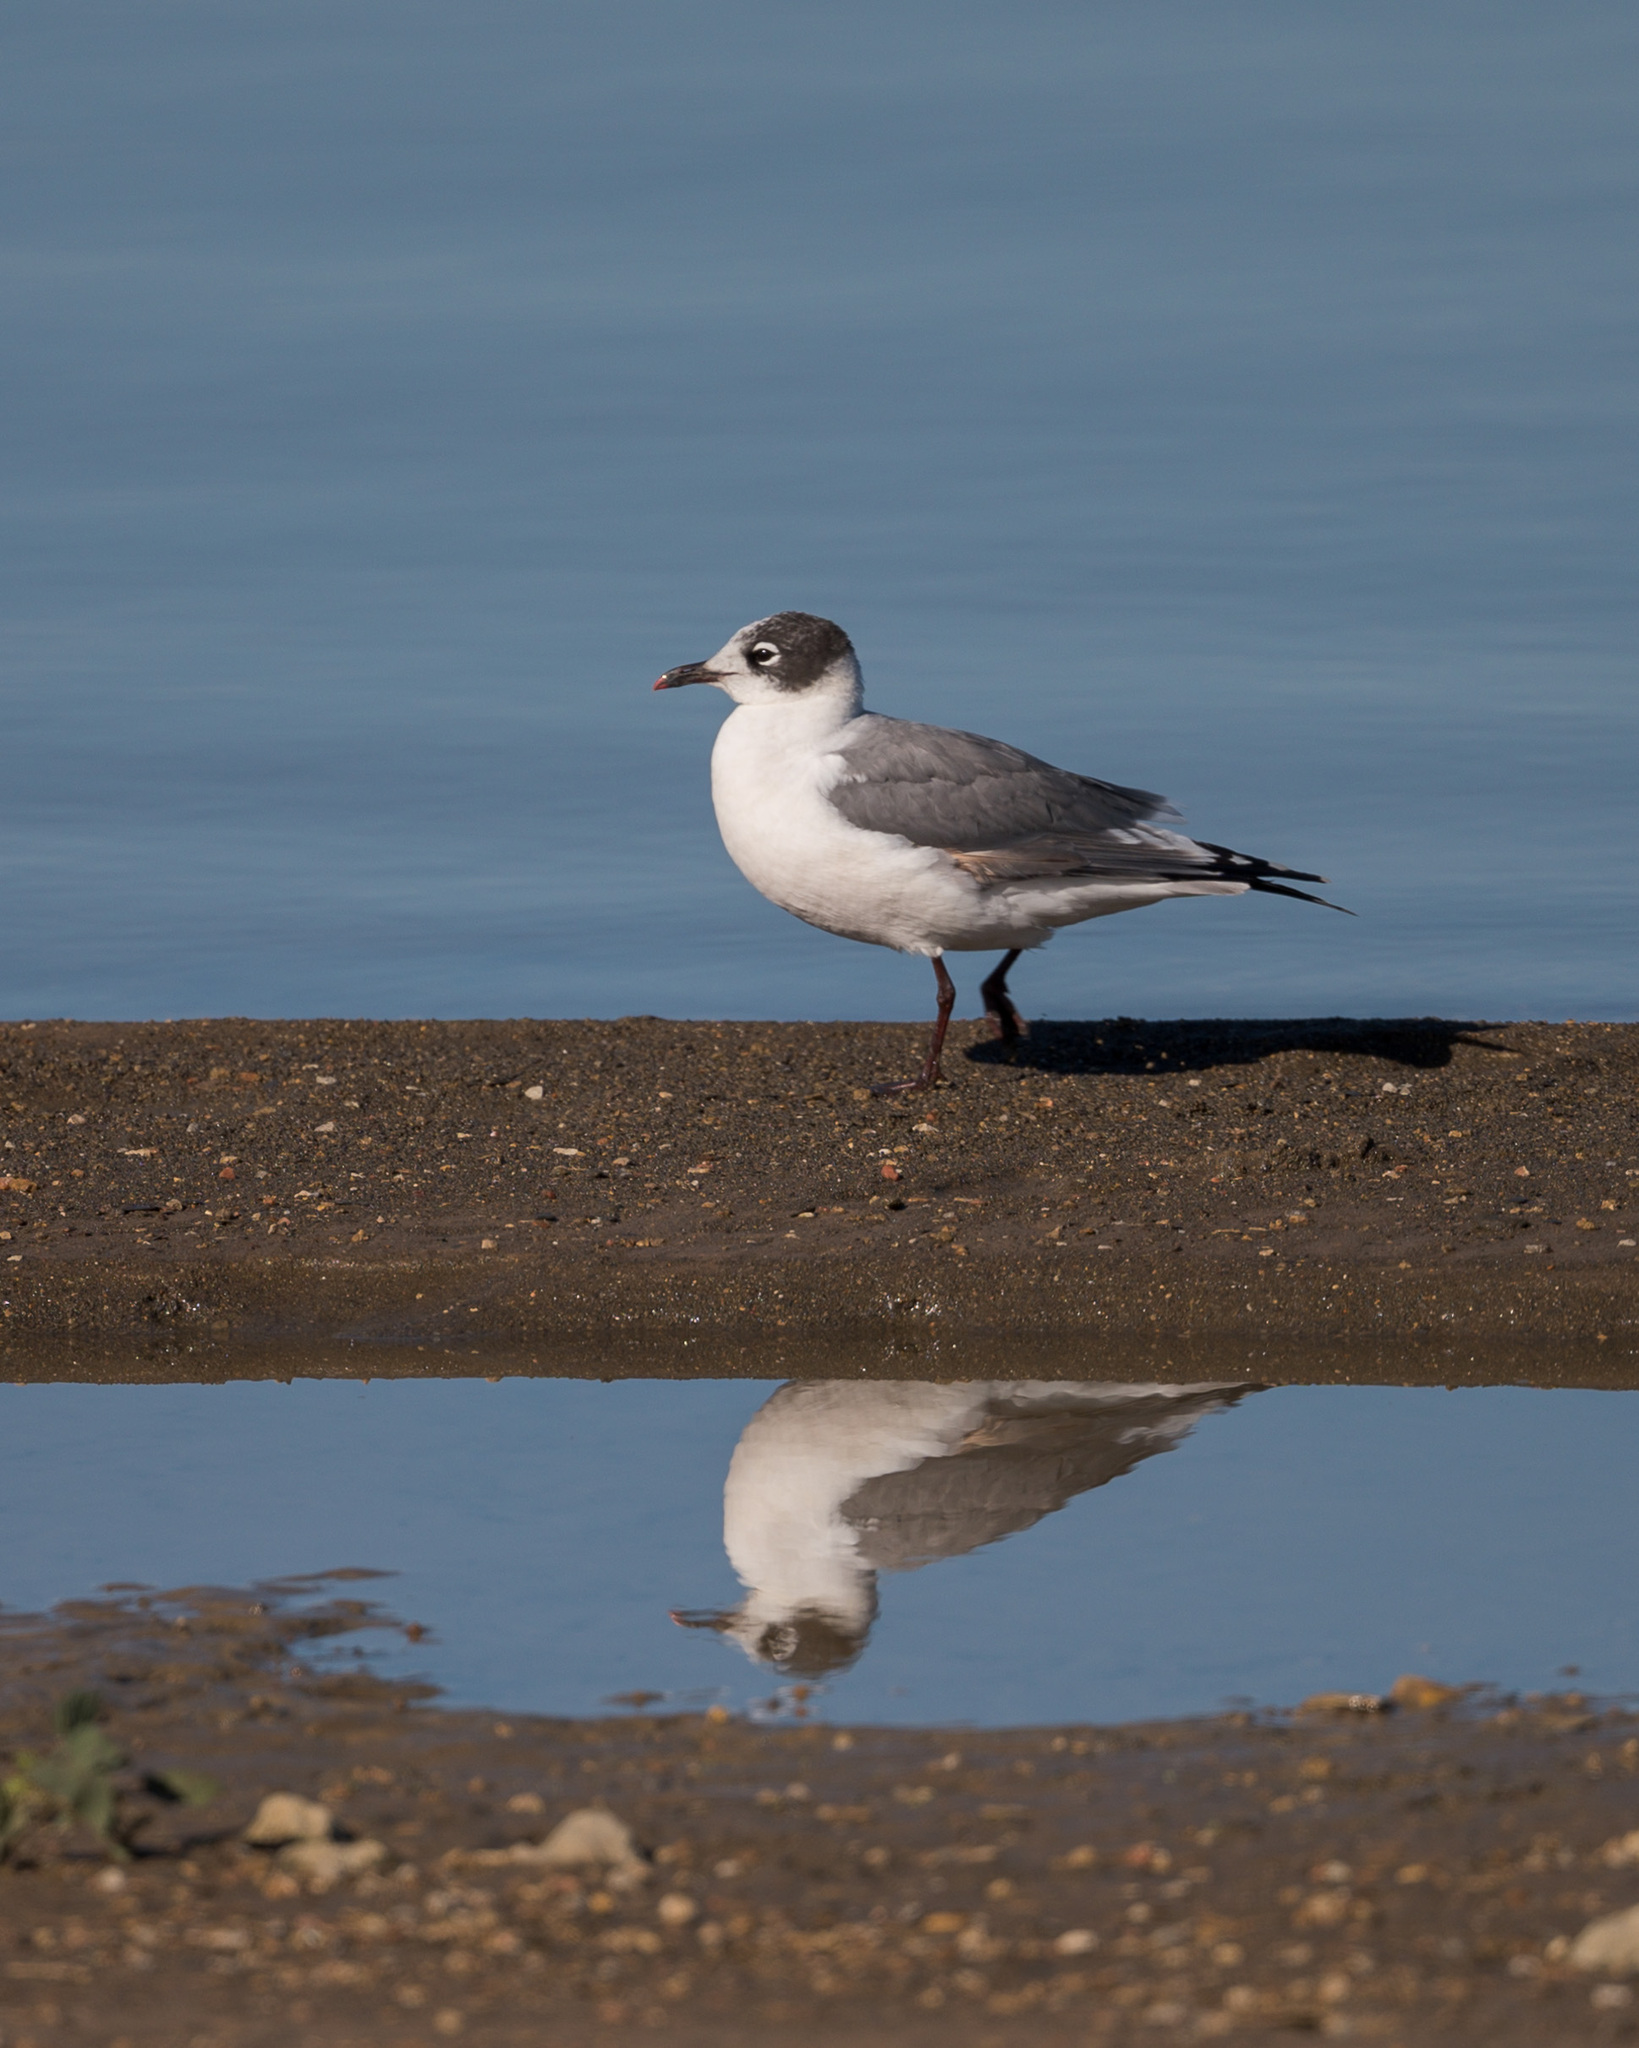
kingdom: Animalia
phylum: Chordata
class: Aves
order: Charadriiformes
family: Laridae
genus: Leucophaeus
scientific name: Leucophaeus pipixcan
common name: Franklin's gull
